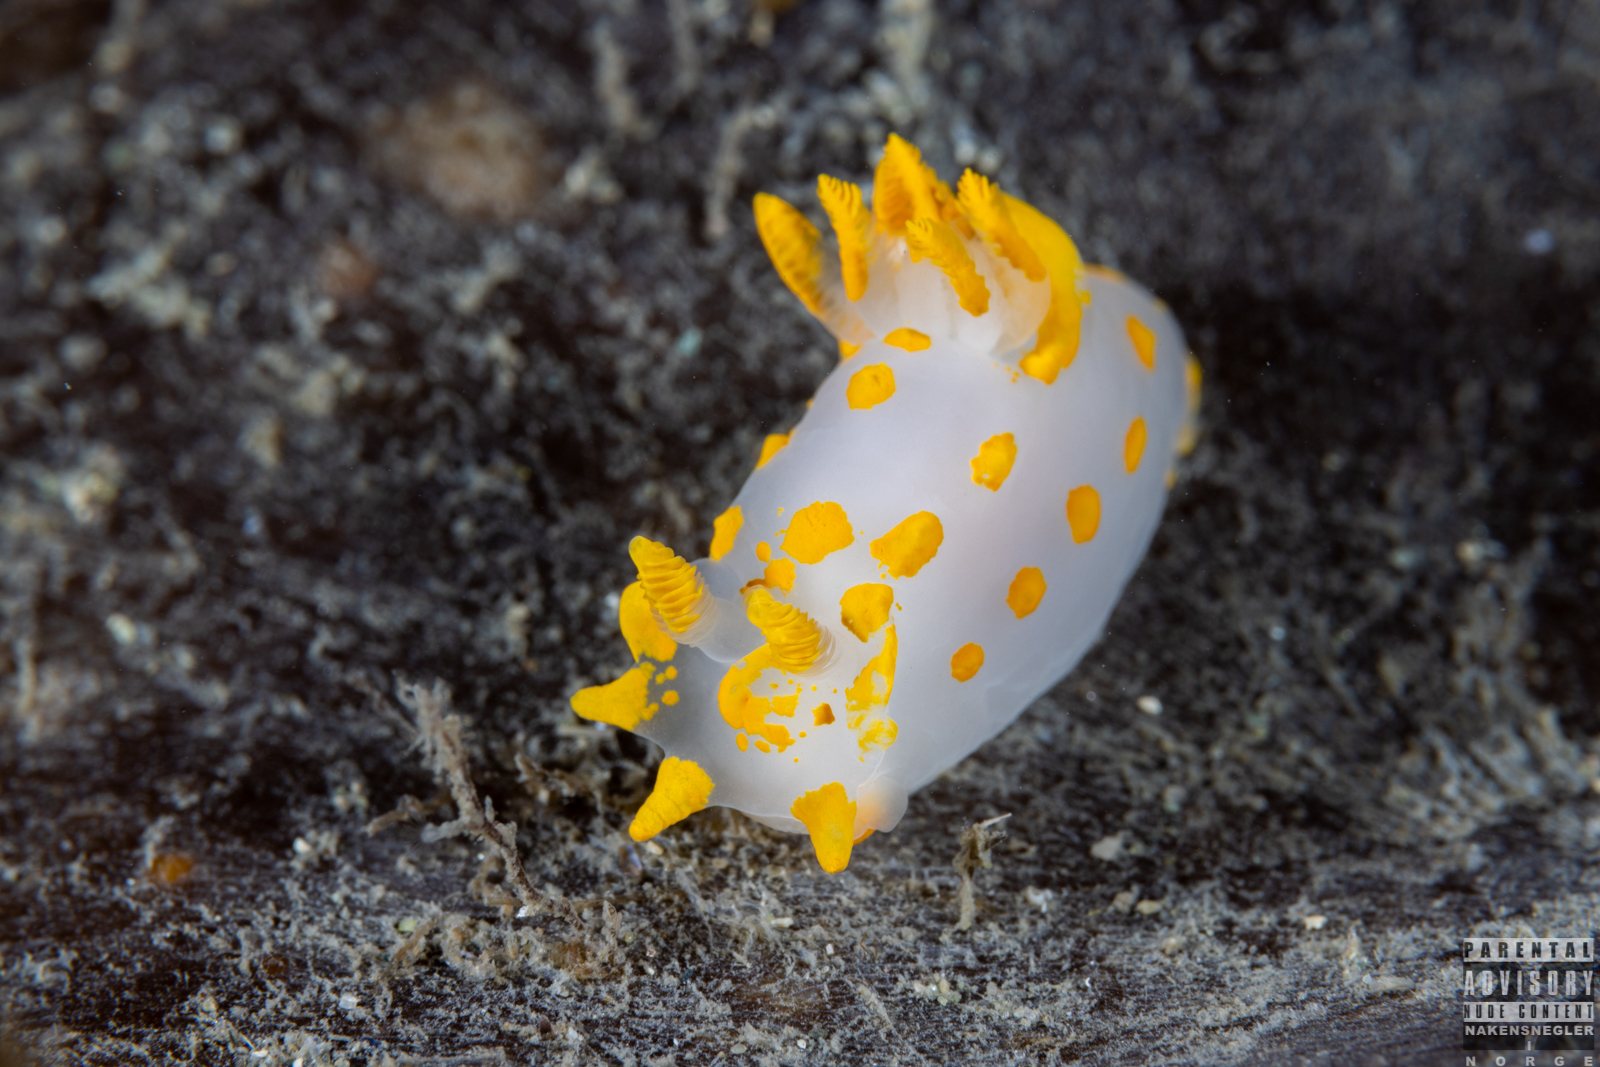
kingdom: Animalia
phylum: Mollusca
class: Gastropoda
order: Nudibranchia
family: Polyceridae
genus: Polycera
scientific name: Polycera quadrilineata
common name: Four-striped polycera
